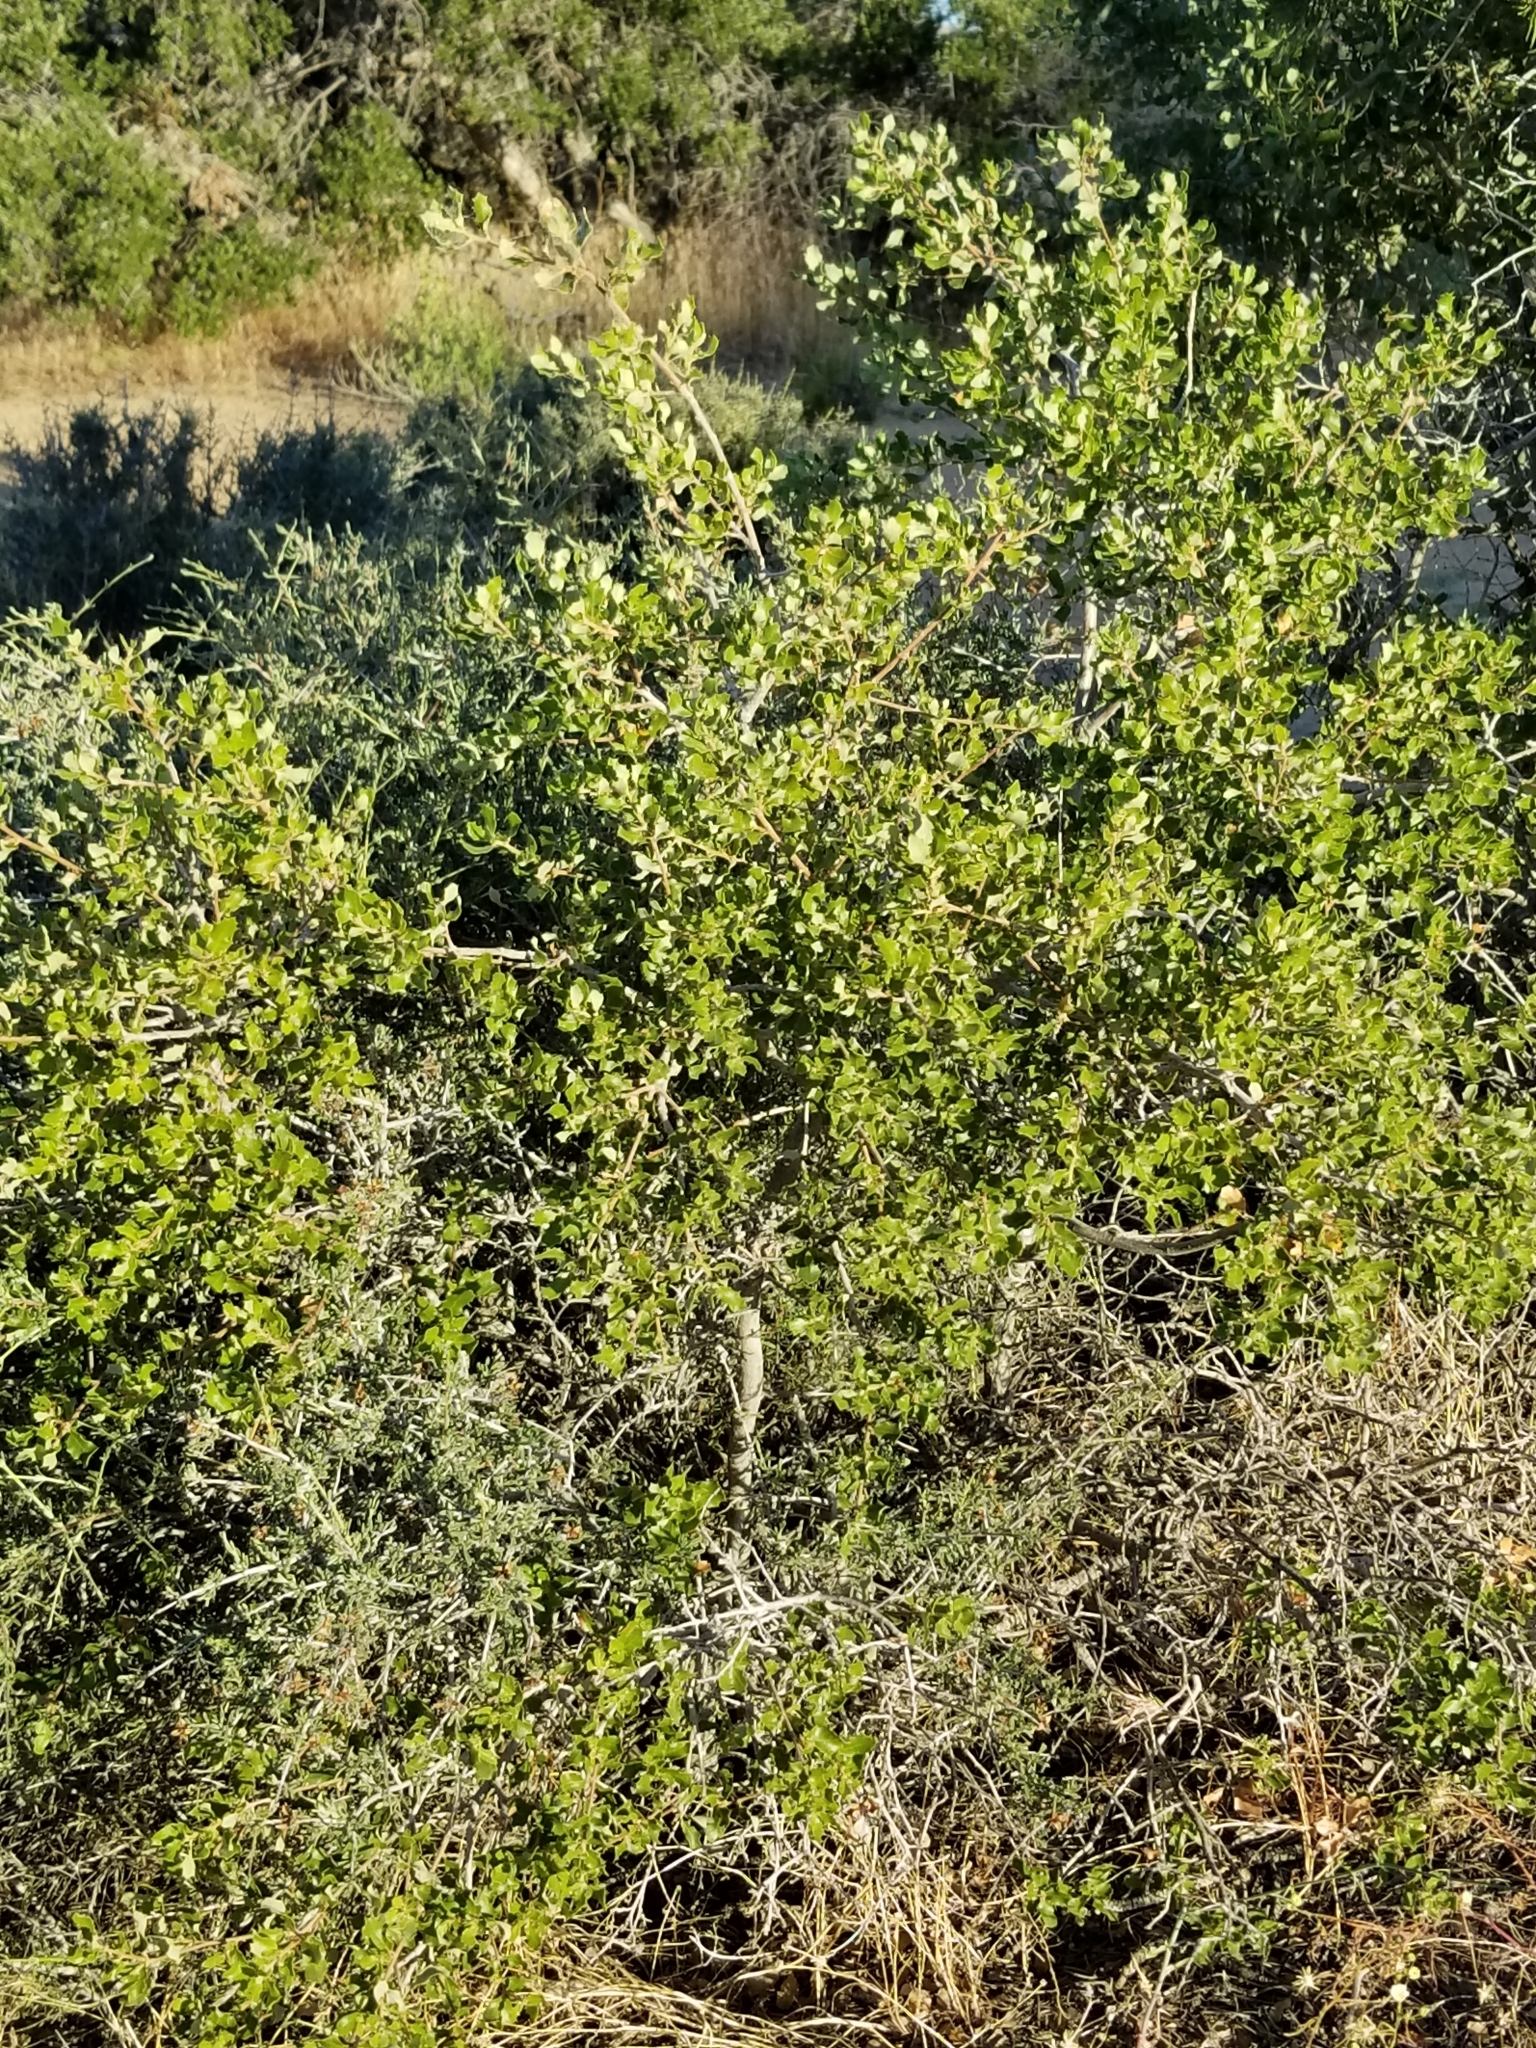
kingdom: Plantae
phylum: Tracheophyta
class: Magnoliopsida
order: Fagales
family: Fagaceae
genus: Quercus
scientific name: Quercus cornelius-mulleri
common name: Muller oak
